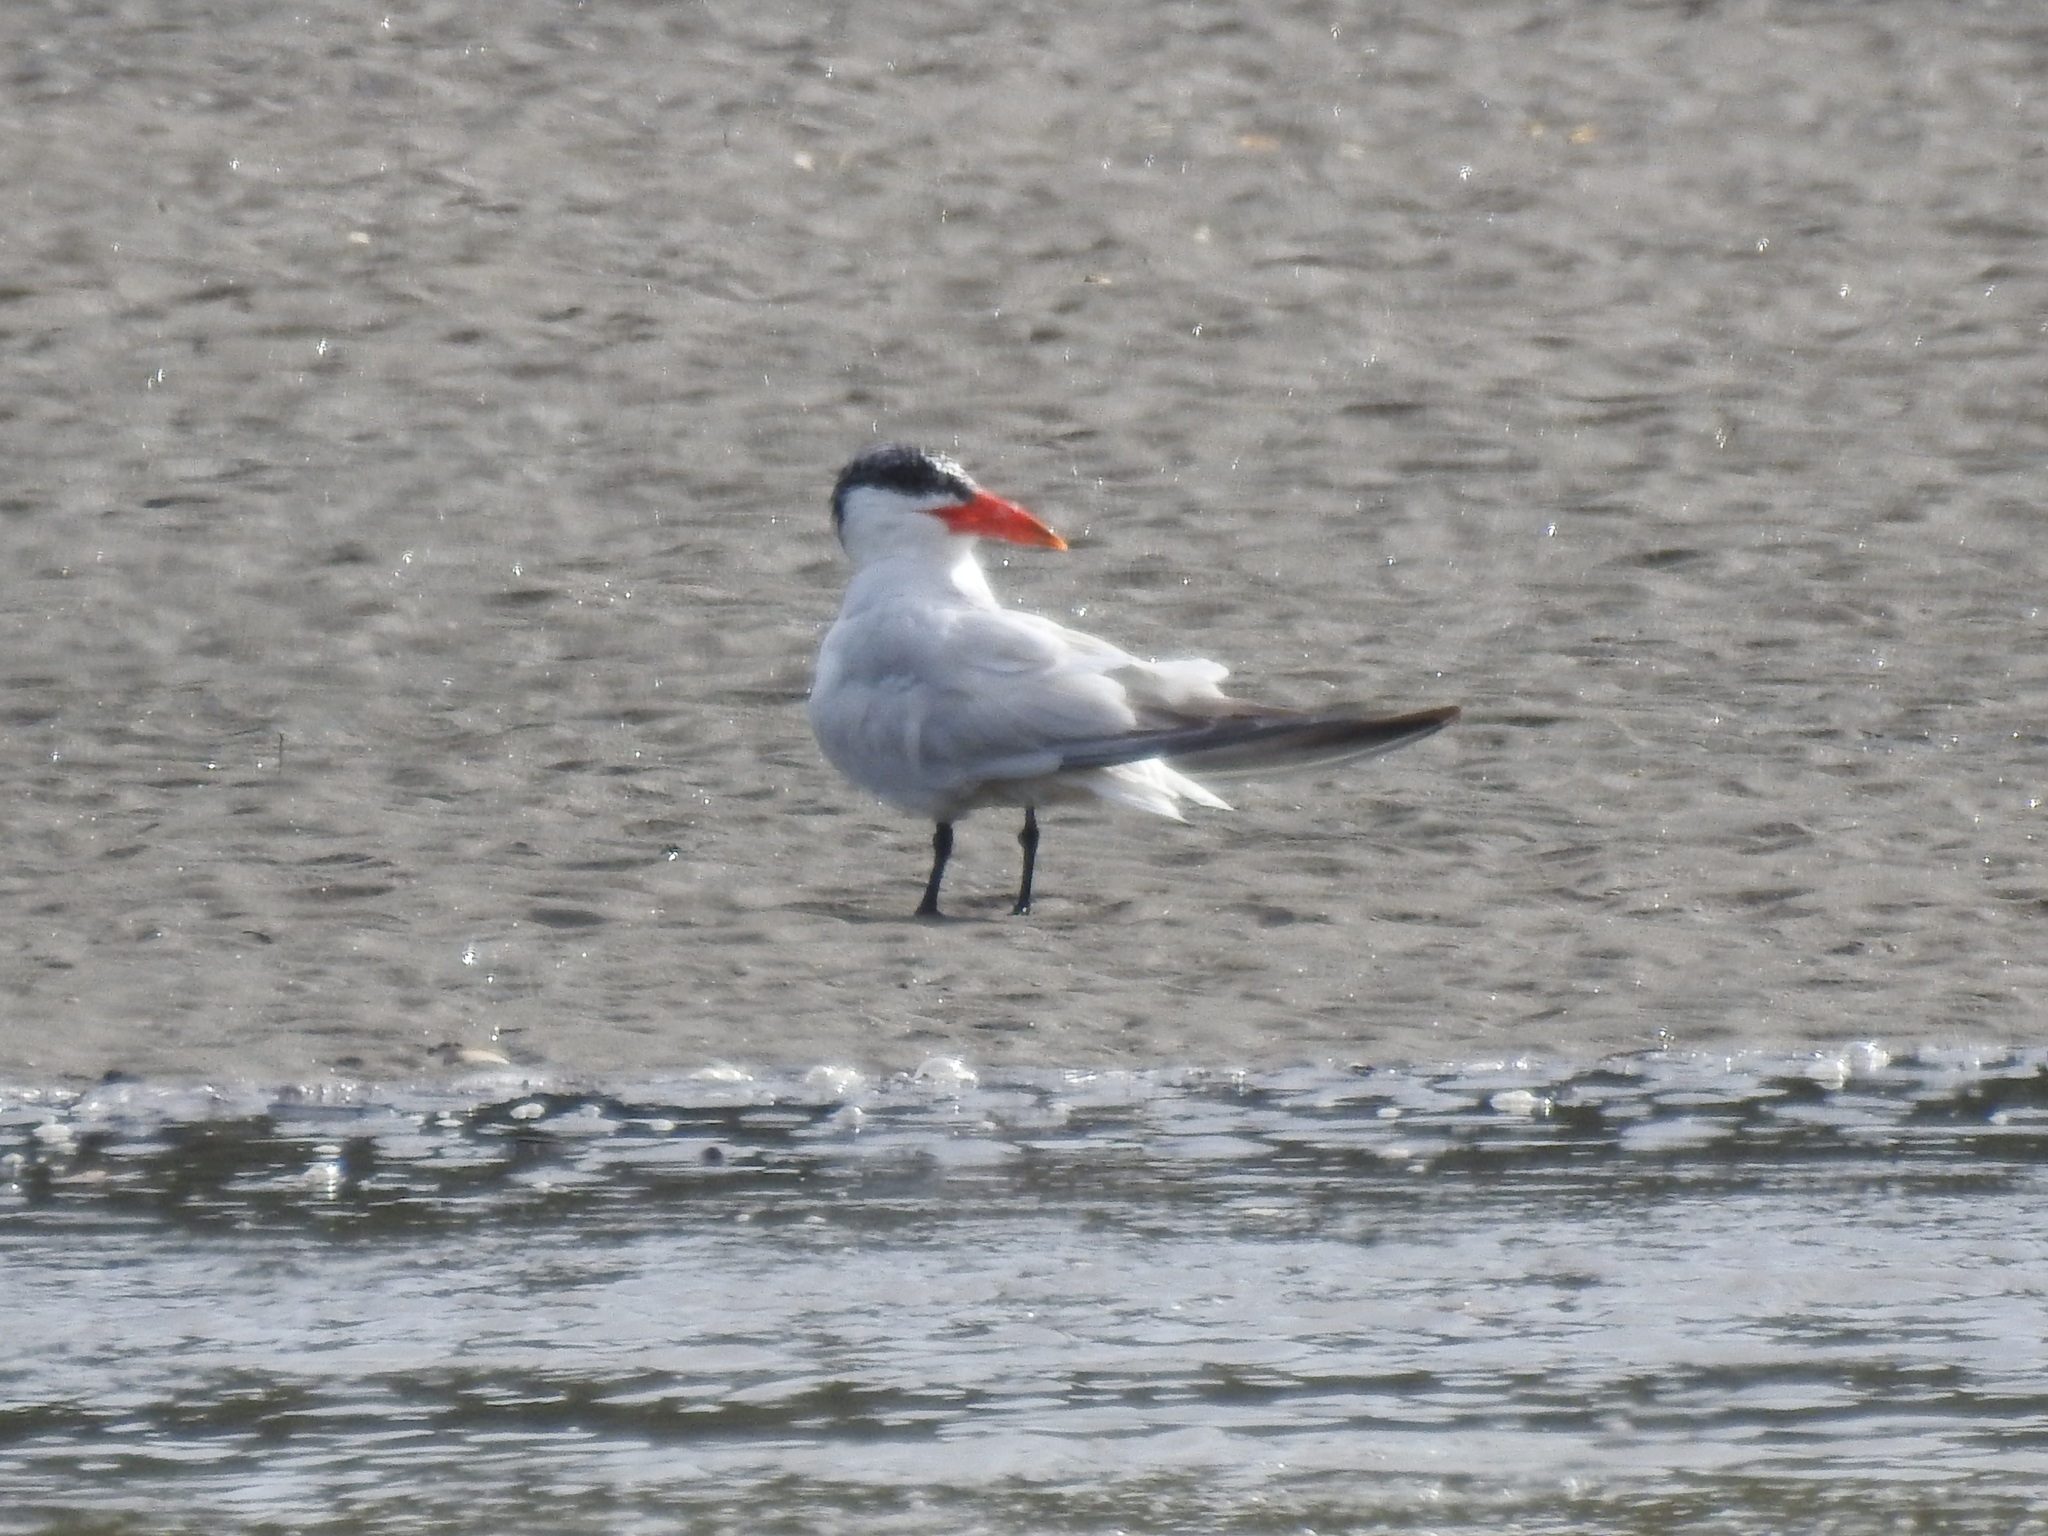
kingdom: Animalia
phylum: Chordata
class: Aves
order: Charadriiformes
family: Laridae
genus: Hydroprogne
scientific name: Hydroprogne caspia
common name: Caspian tern
